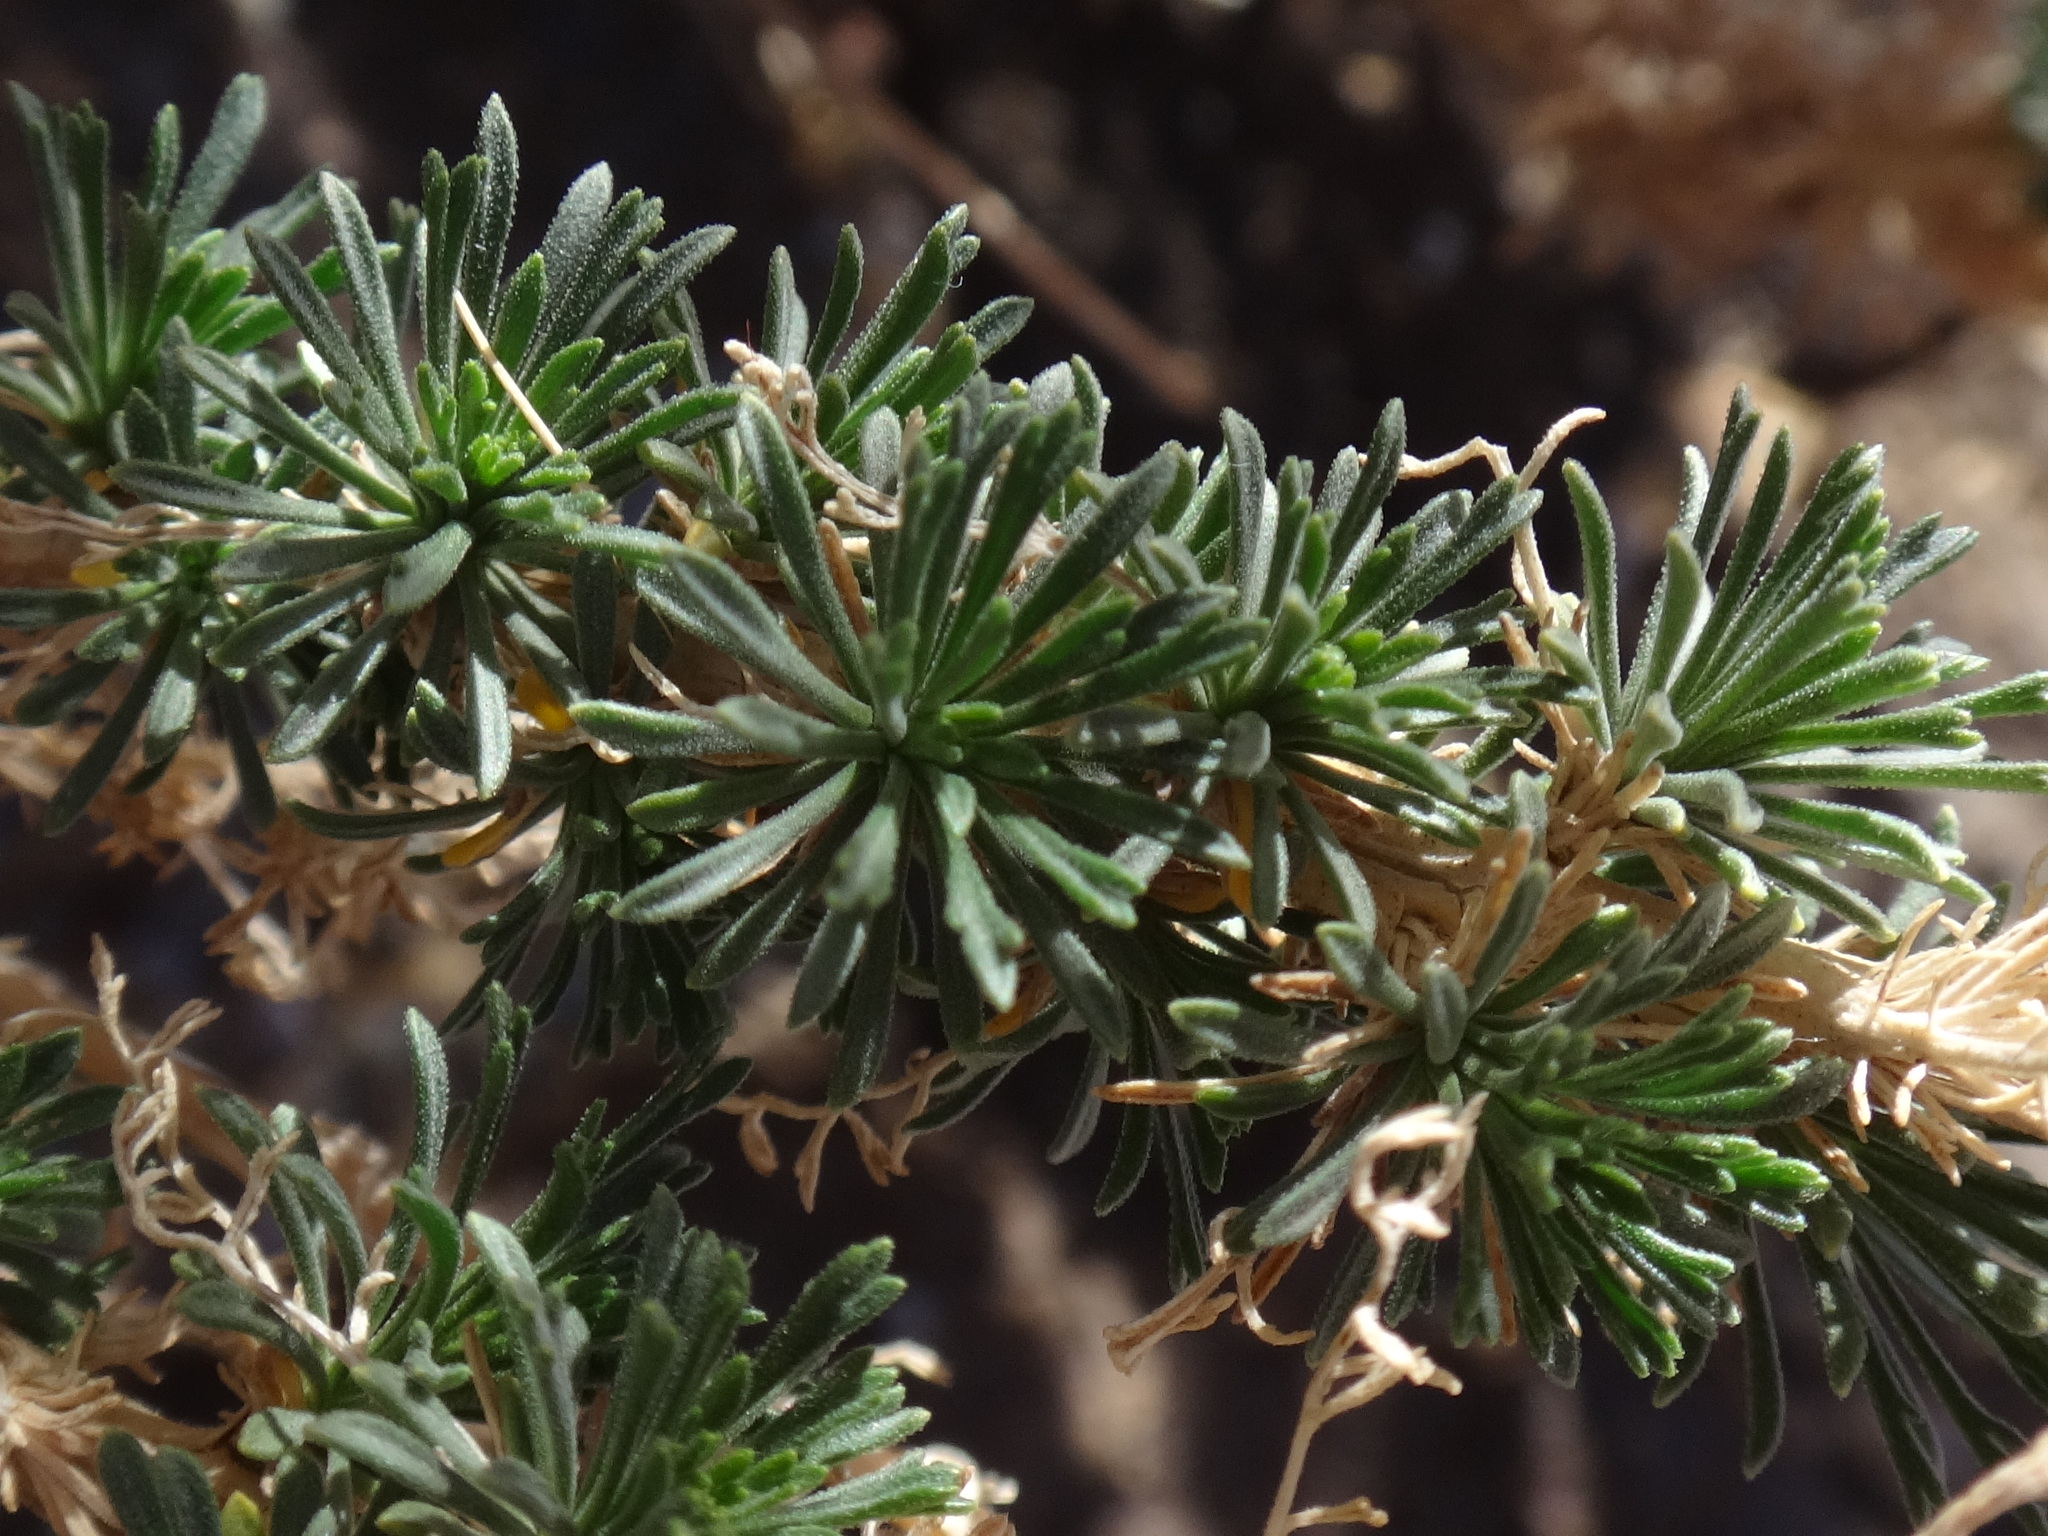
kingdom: Plantae
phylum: Tracheophyta
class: Magnoliopsida
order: Brassicales
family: Brassicaceae
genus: Erysimum
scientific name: Erysimum scoparium
